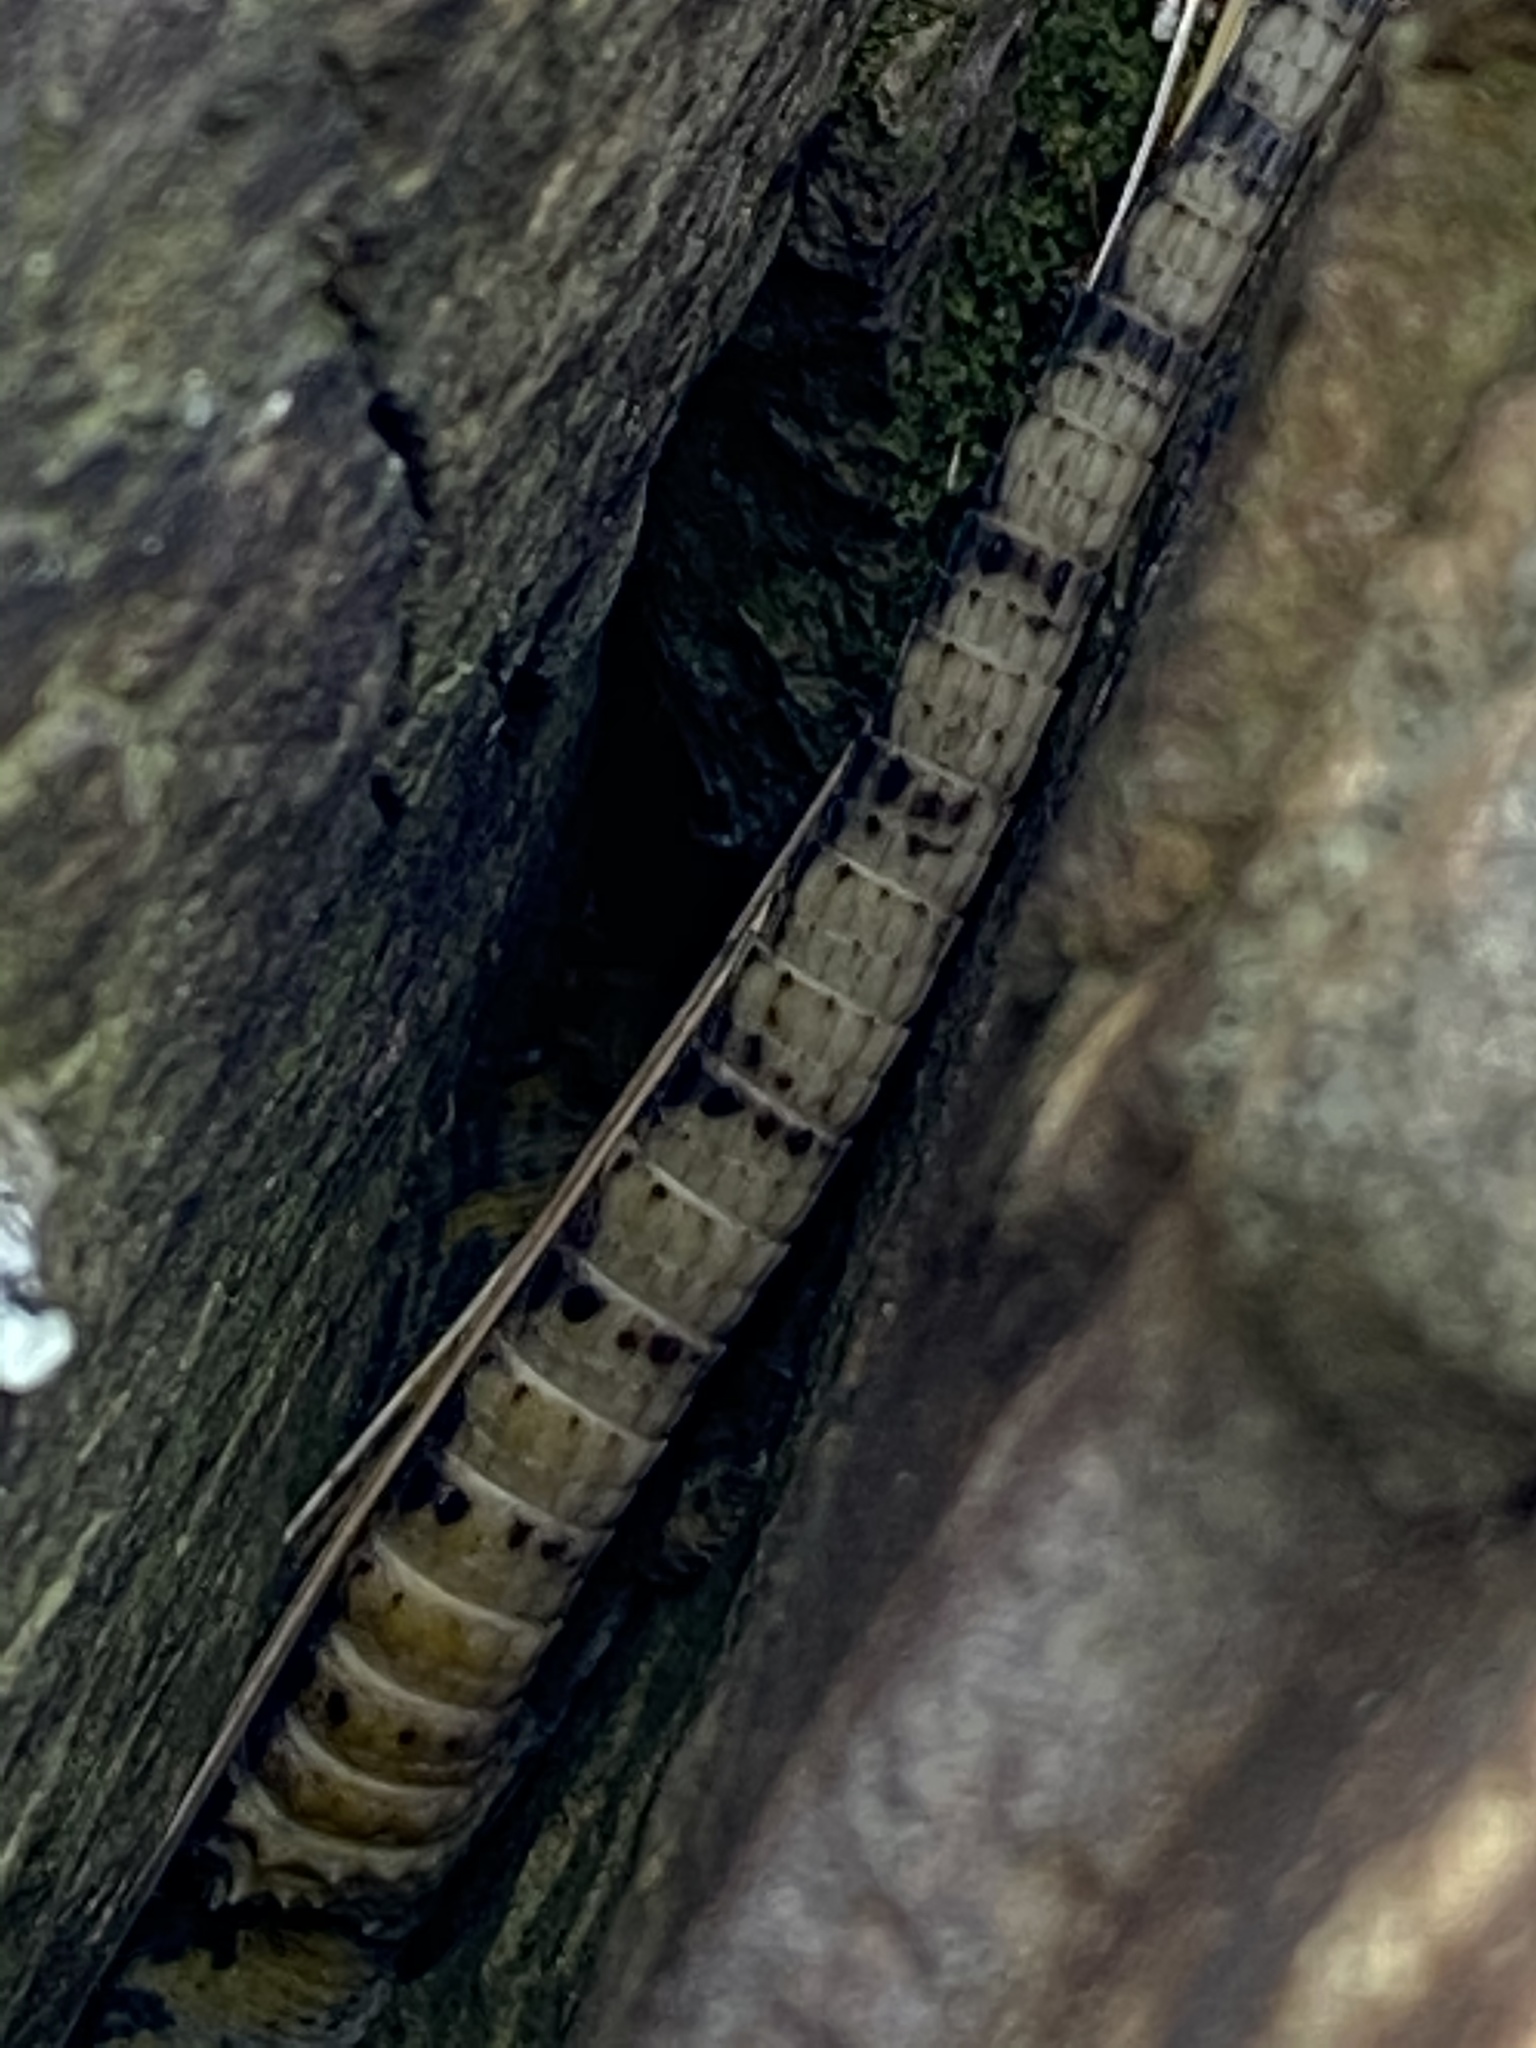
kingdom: Animalia
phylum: Chordata
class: Squamata
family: Cordylidae
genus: Pseudocordylus
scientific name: Pseudocordylus microlepidotus
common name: Cape crag lizard
